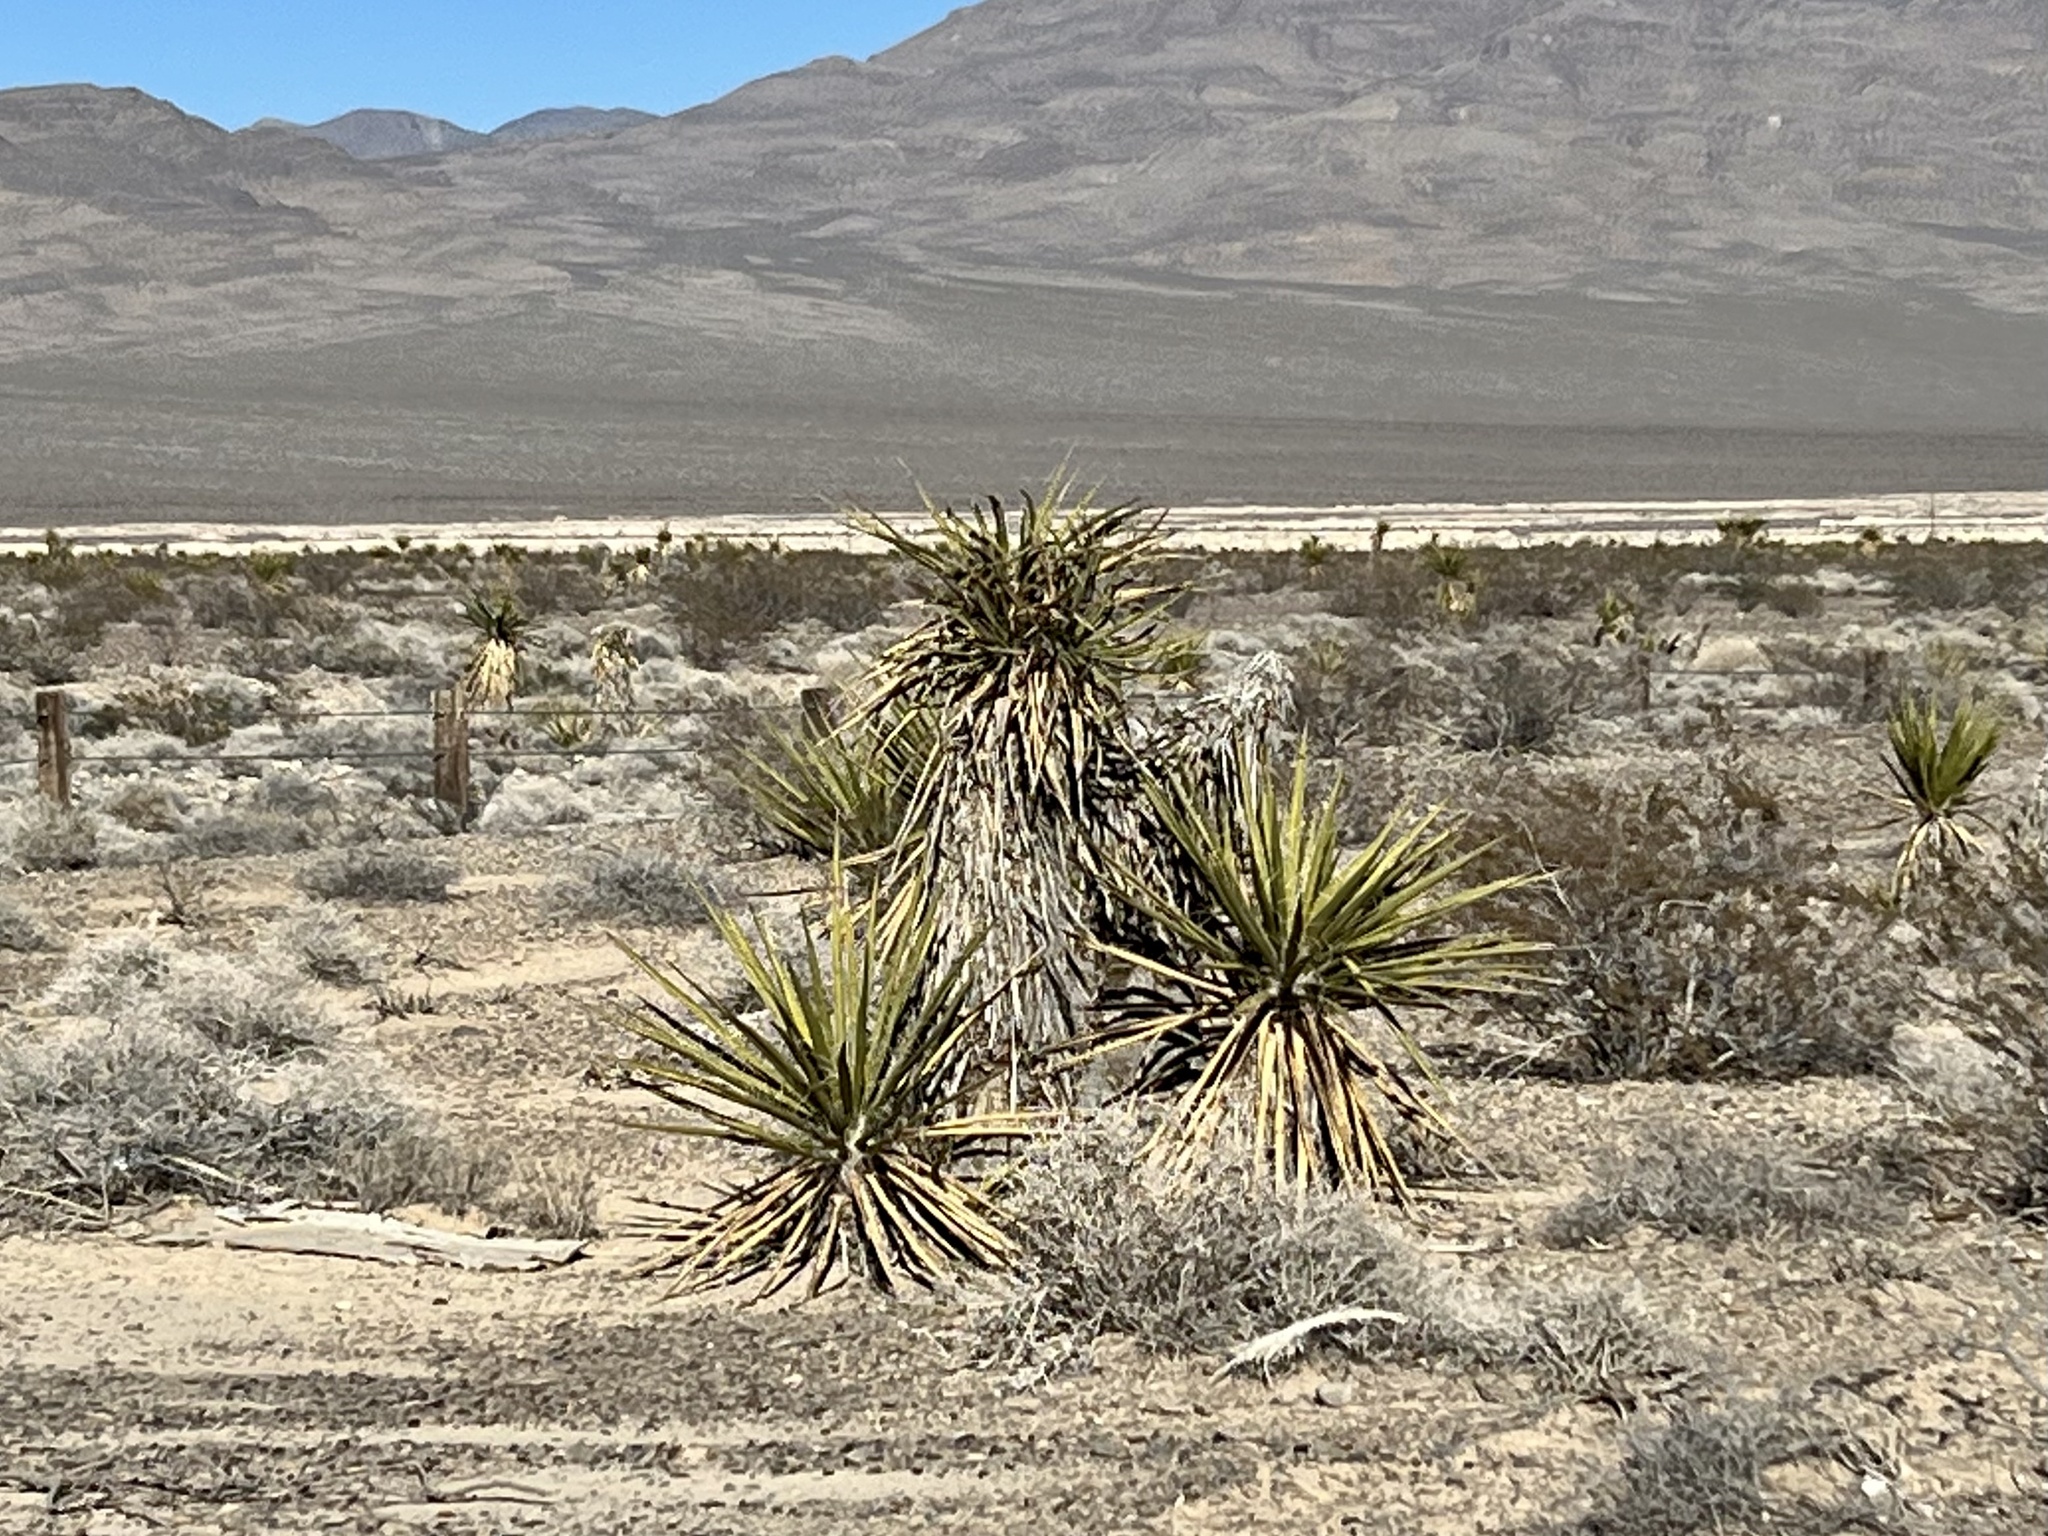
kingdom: Plantae
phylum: Tracheophyta
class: Liliopsida
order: Asparagales
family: Asparagaceae
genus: Yucca
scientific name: Yucca schidigera
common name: Mojave yucca
